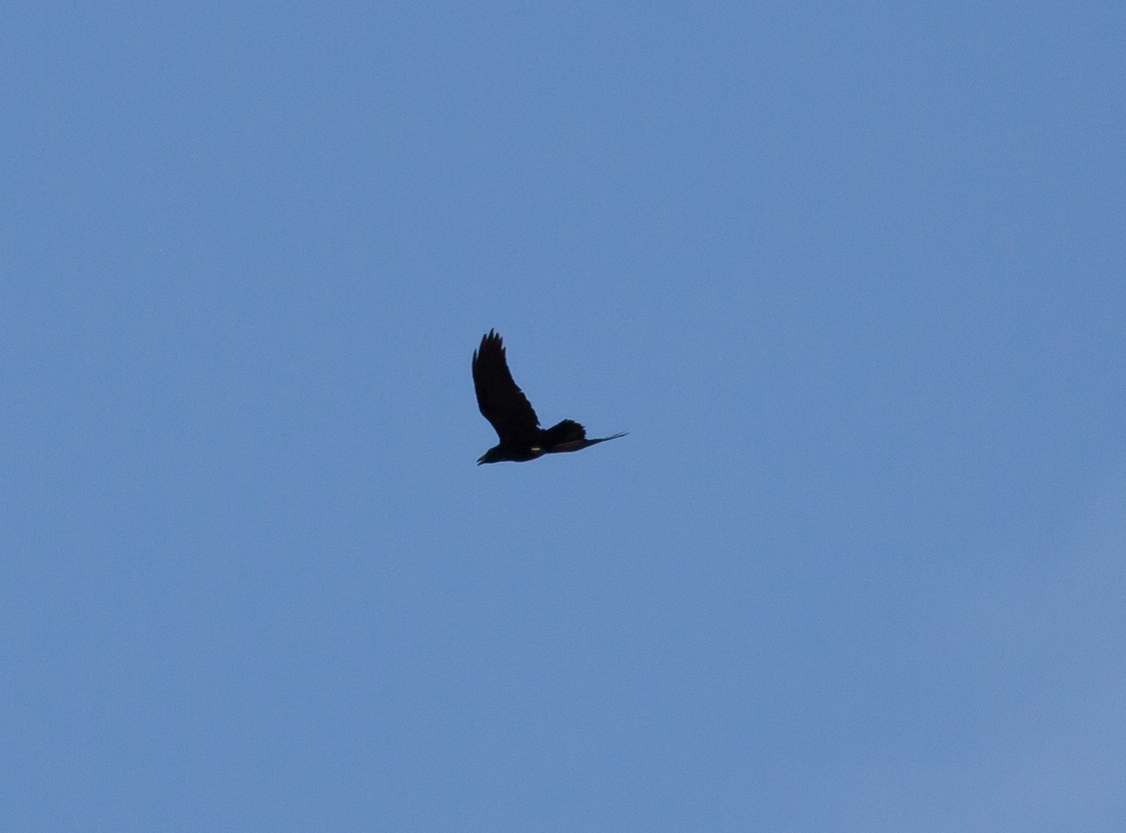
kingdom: Animalia
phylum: Chordata
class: Aves
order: Passeriformes
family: Corvidae
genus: Corvus
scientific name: Corvus corax
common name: Common raven
